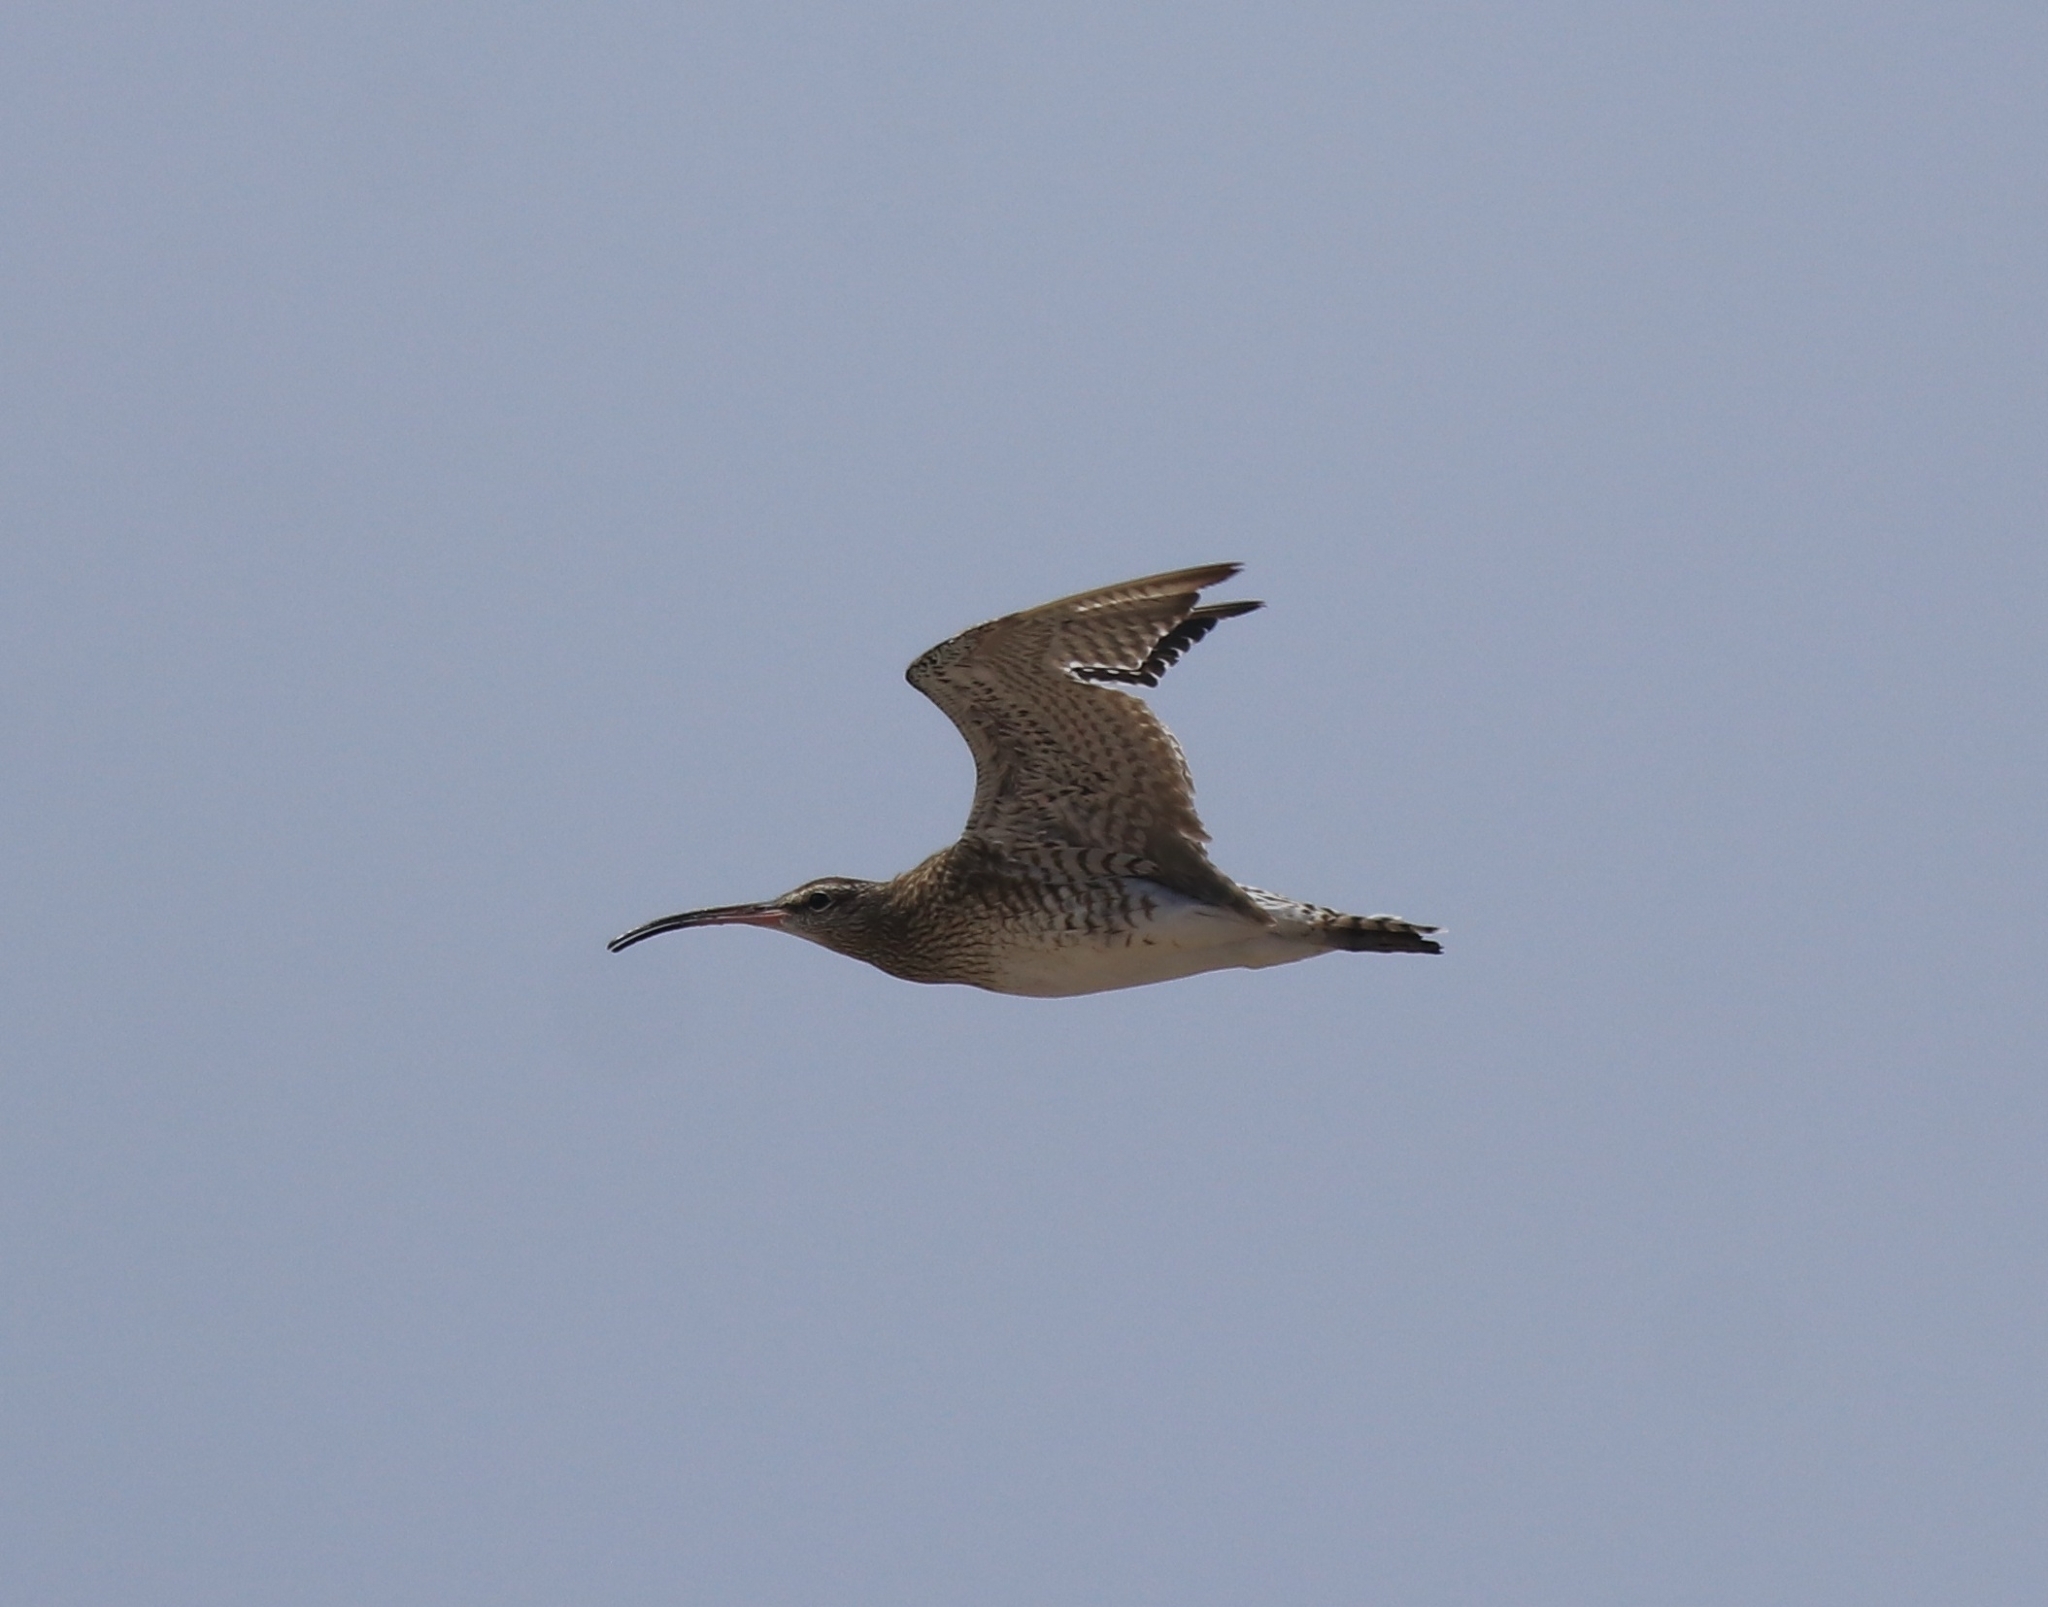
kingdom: Animalia
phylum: Chordata
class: Aves
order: Charadriiformes
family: Scolopacidae
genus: Numenius
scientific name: Numenius phaeopus
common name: Whimbrel
